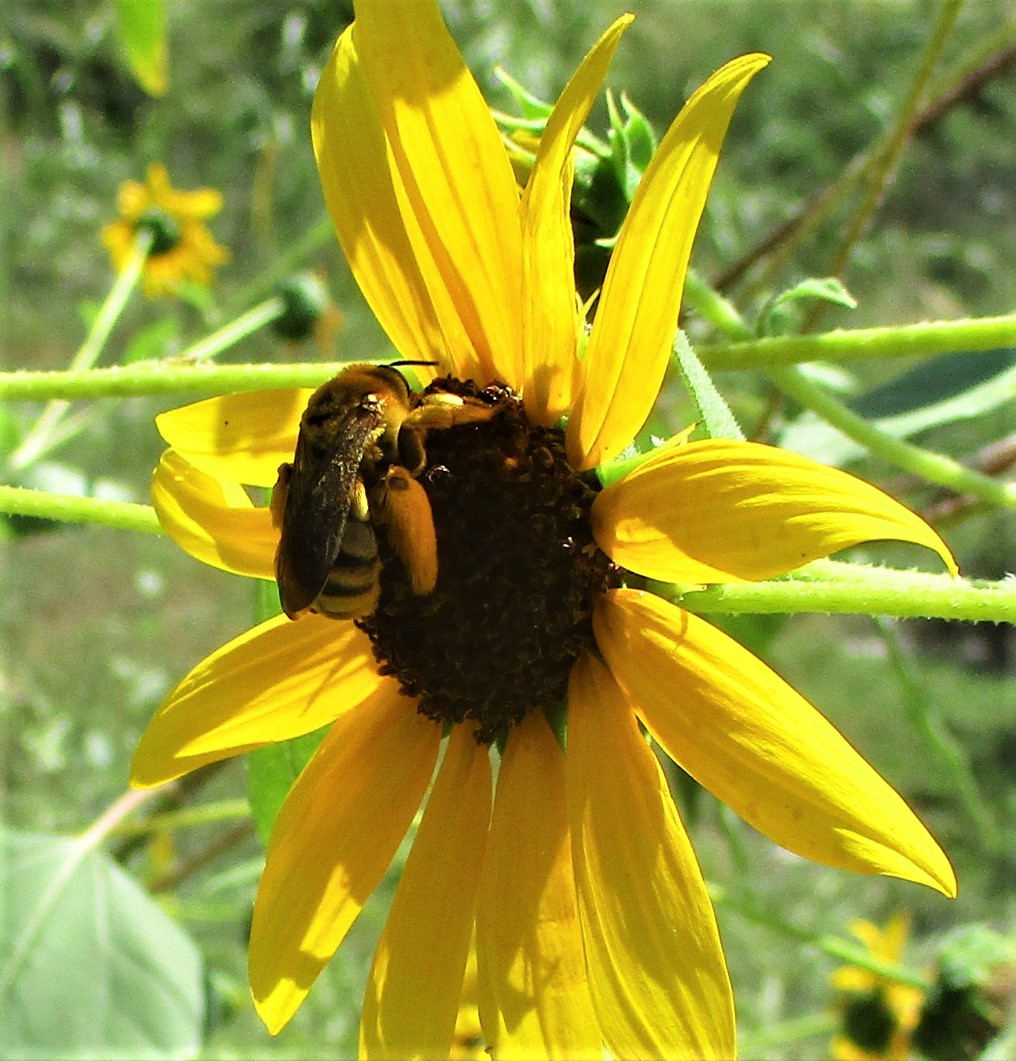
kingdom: Animalia
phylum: Arthropoda
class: Insecta
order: Hymenoptera
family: Apidae
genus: Svastra
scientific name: Svastra obliqua
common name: Oblique longhorn
